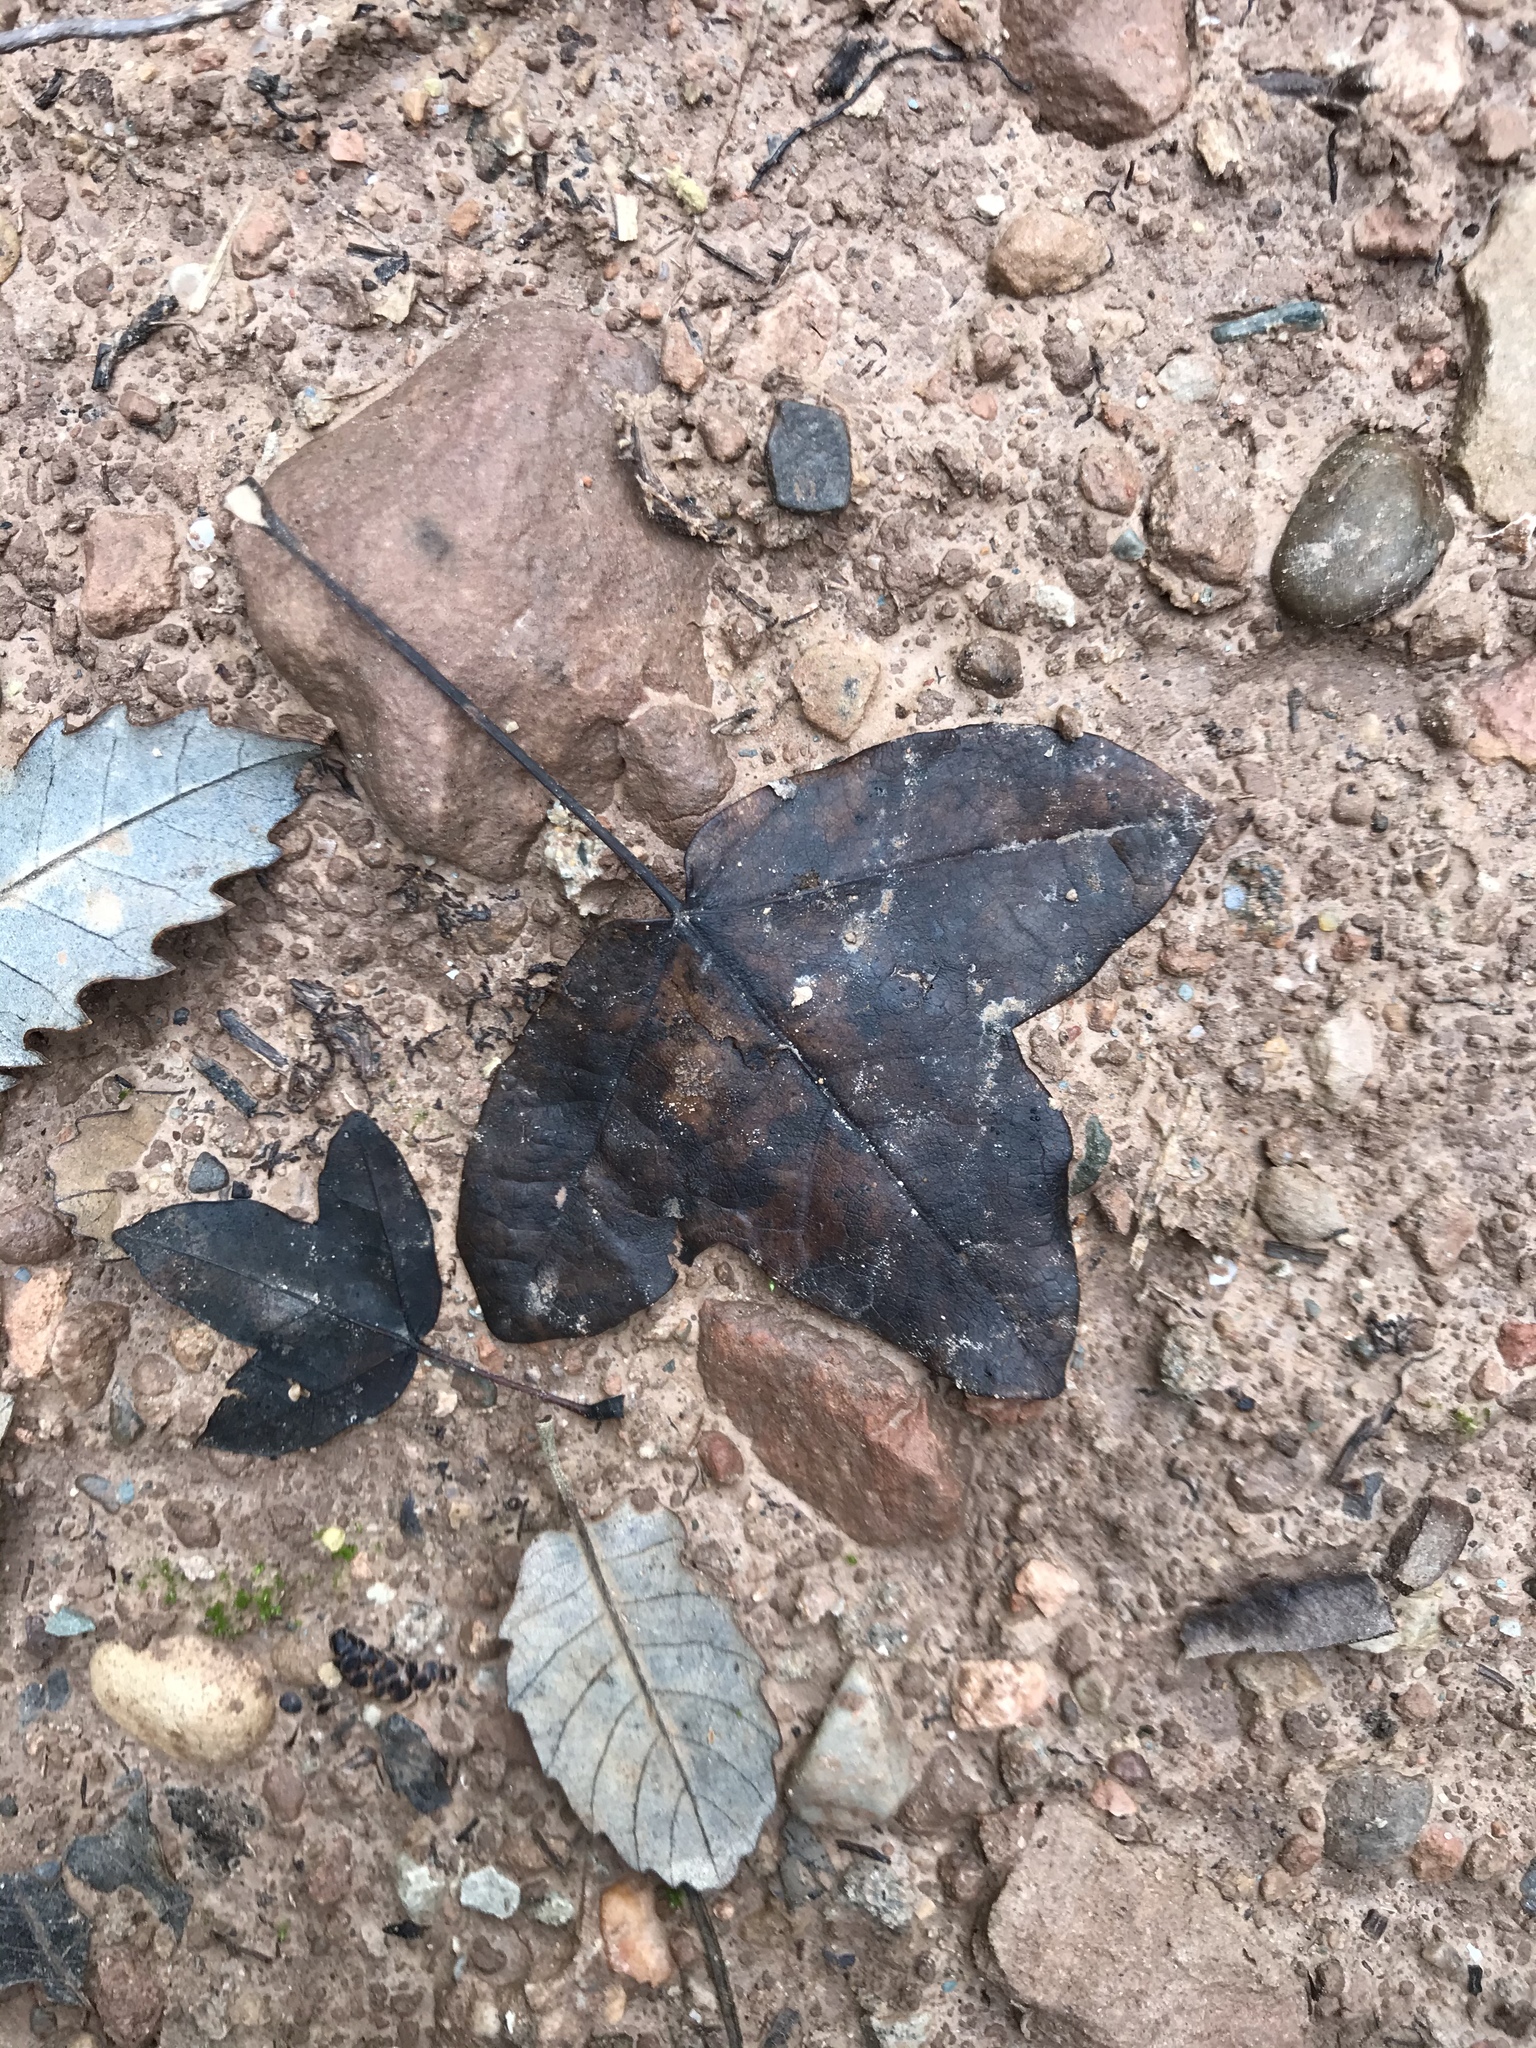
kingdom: Plantae
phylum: Tracheophyta
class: Magnoliopsida
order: Sapindales
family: Sapindaceae
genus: Acer
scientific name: Acer monspessulanum
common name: Montpellier maple
